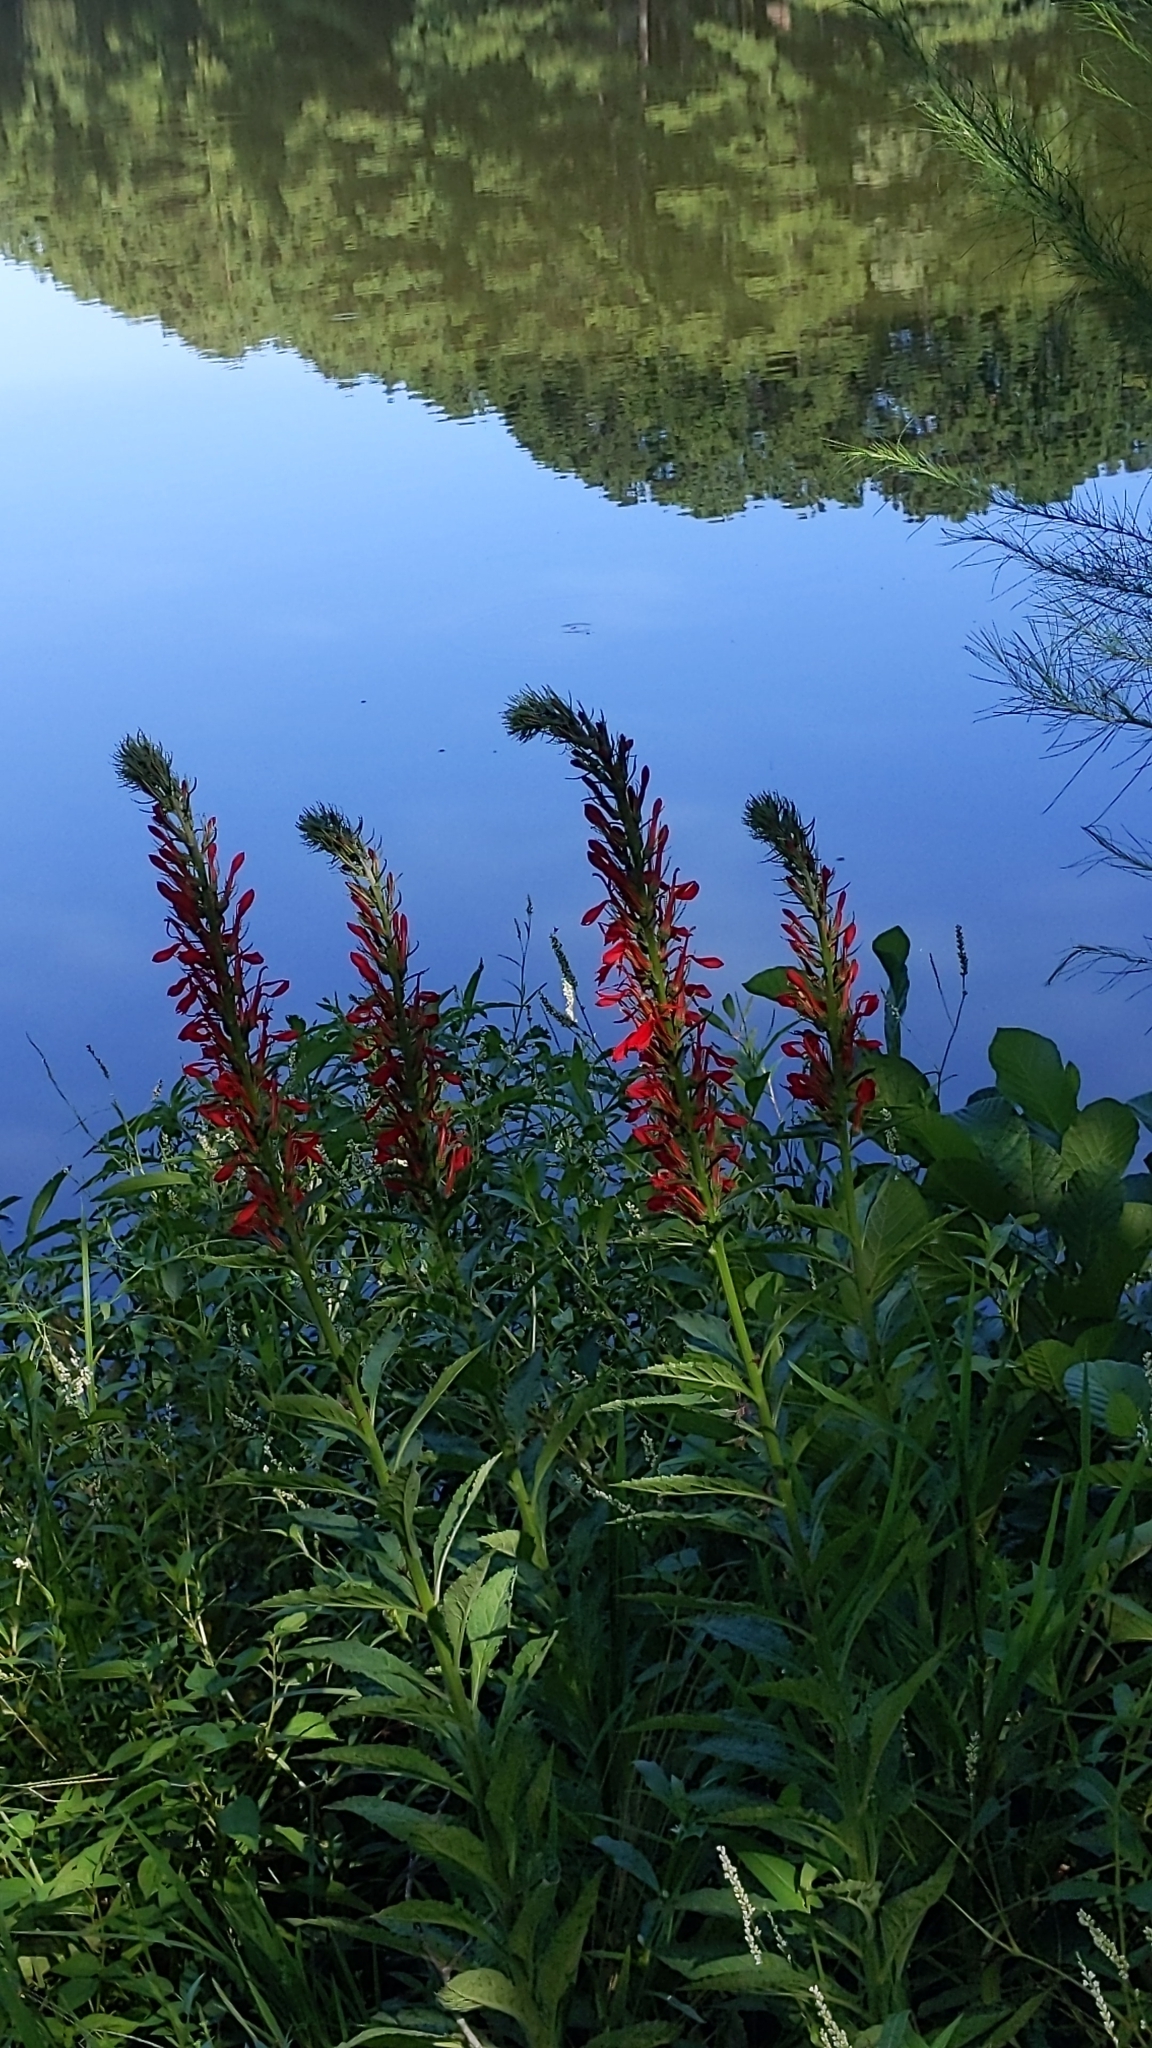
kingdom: Plantae
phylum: Tracheophyta
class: Magnoliopsida
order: Asterales
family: Campanulaceae
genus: Lobelia
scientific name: Lobelia cardinalis
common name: Cardinal flower
